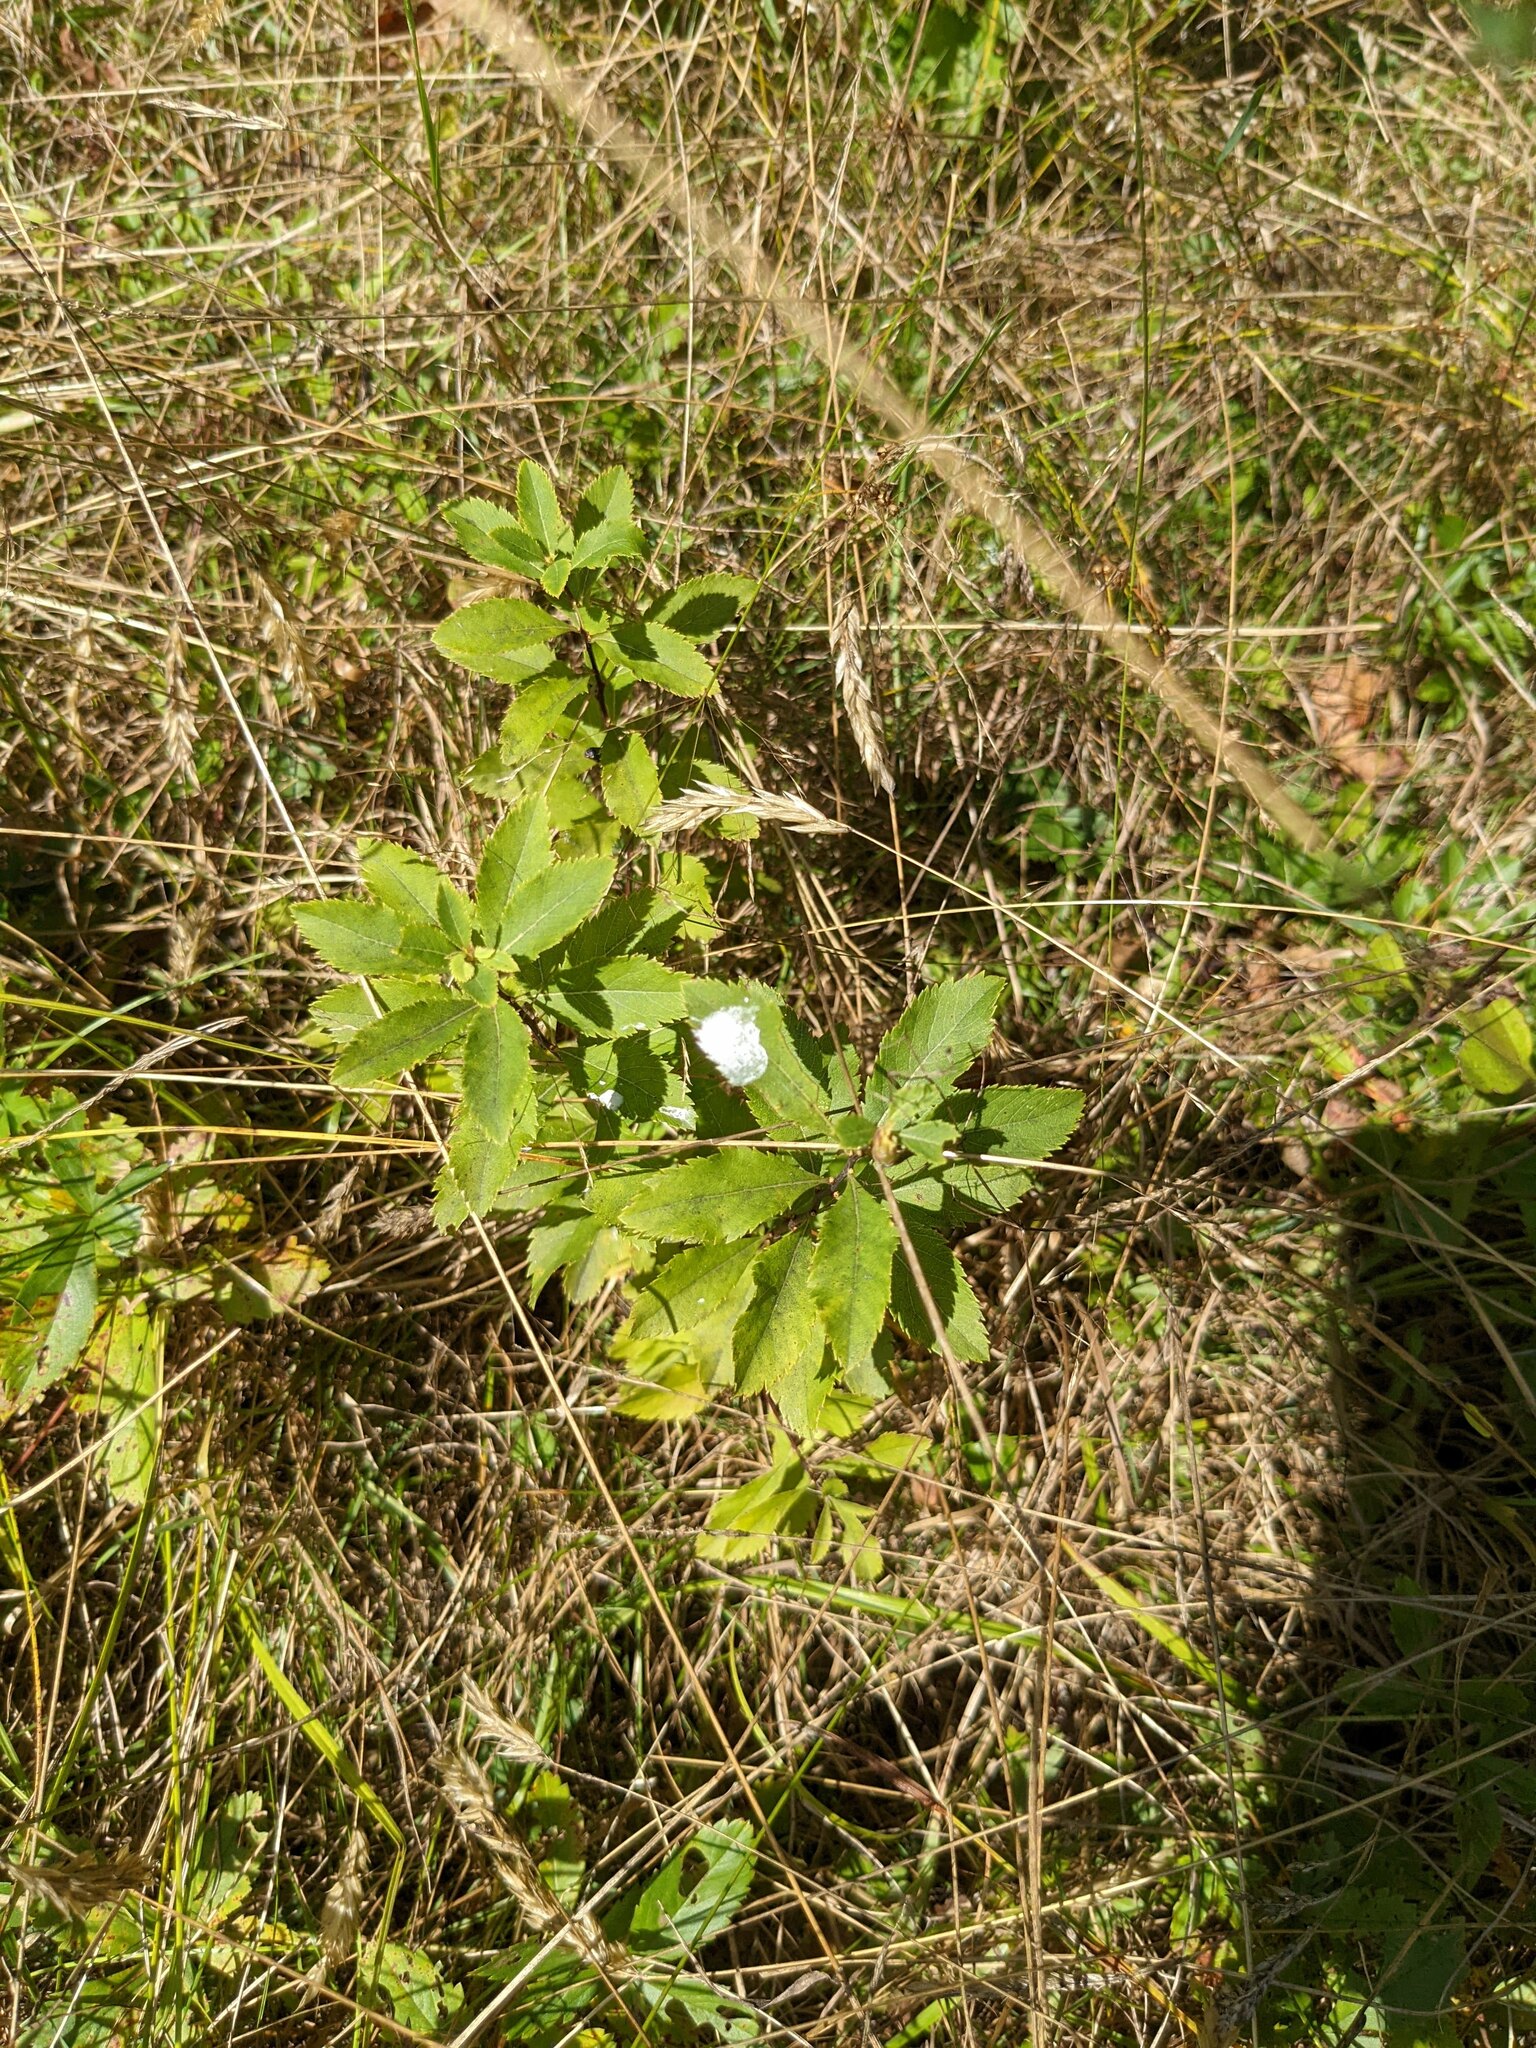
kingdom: Plantae
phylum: Tracheophyta
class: Magnoliopsida
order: Rosales
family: Rosaceae
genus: Spiraea
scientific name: Spiraea alba
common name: Pale bridewort
